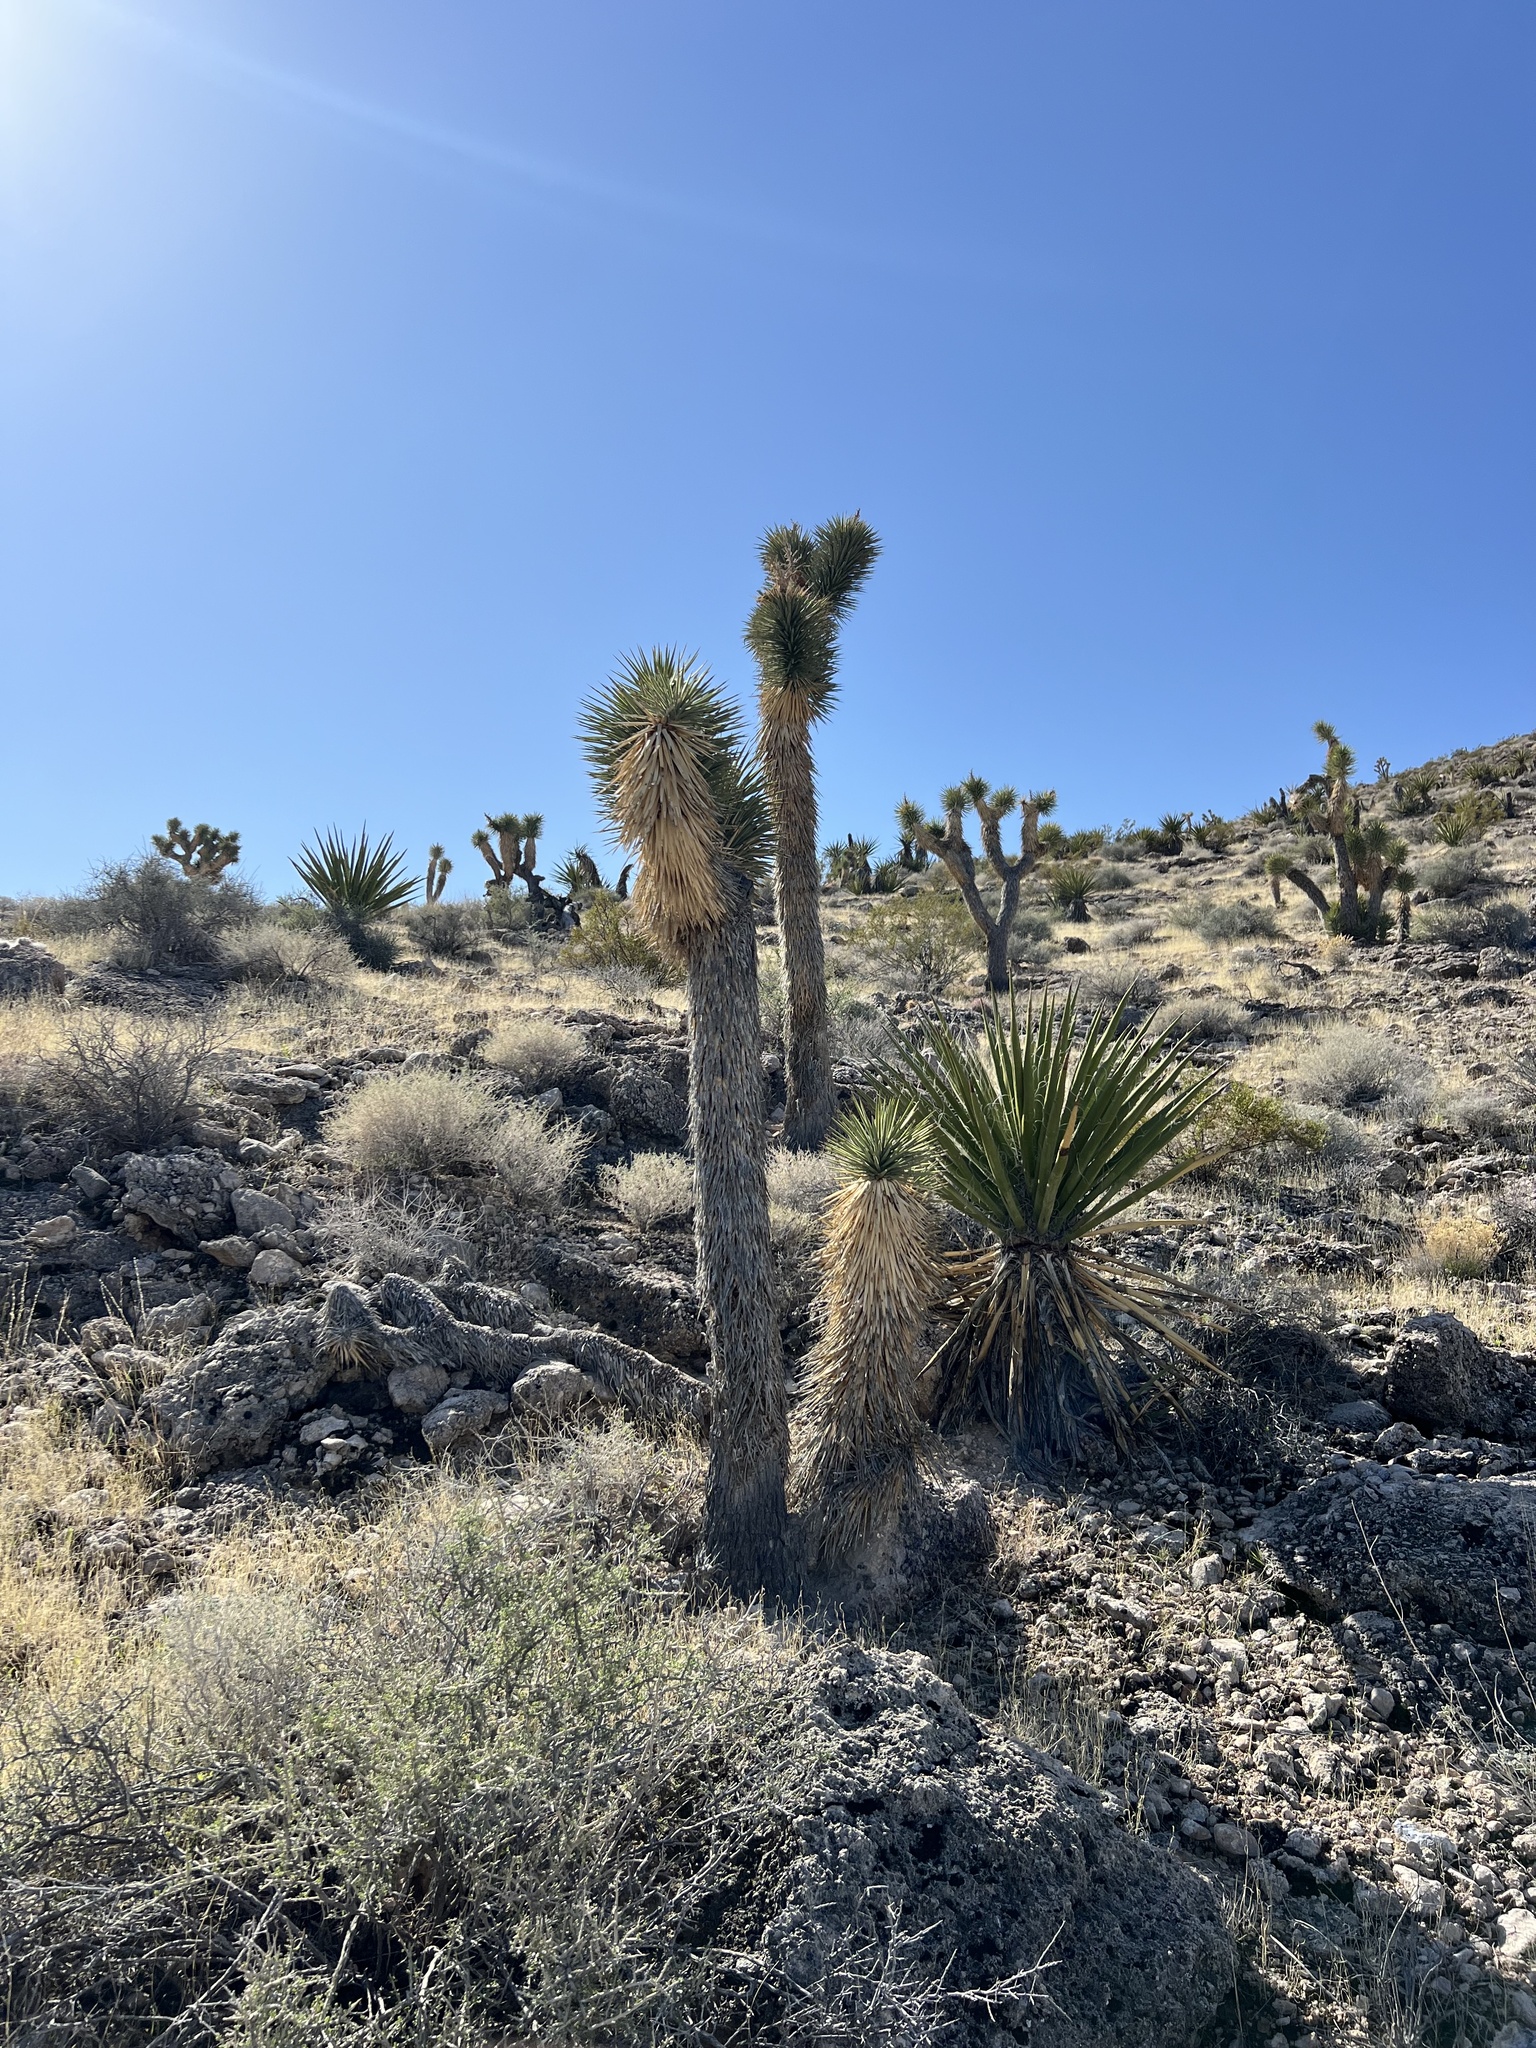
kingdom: Plantae
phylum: Tracheophyta
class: Liliopsida
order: Asparagales
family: Asparagaceae
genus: Yucca
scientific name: Yucca brevifolia
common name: Joshua tree
